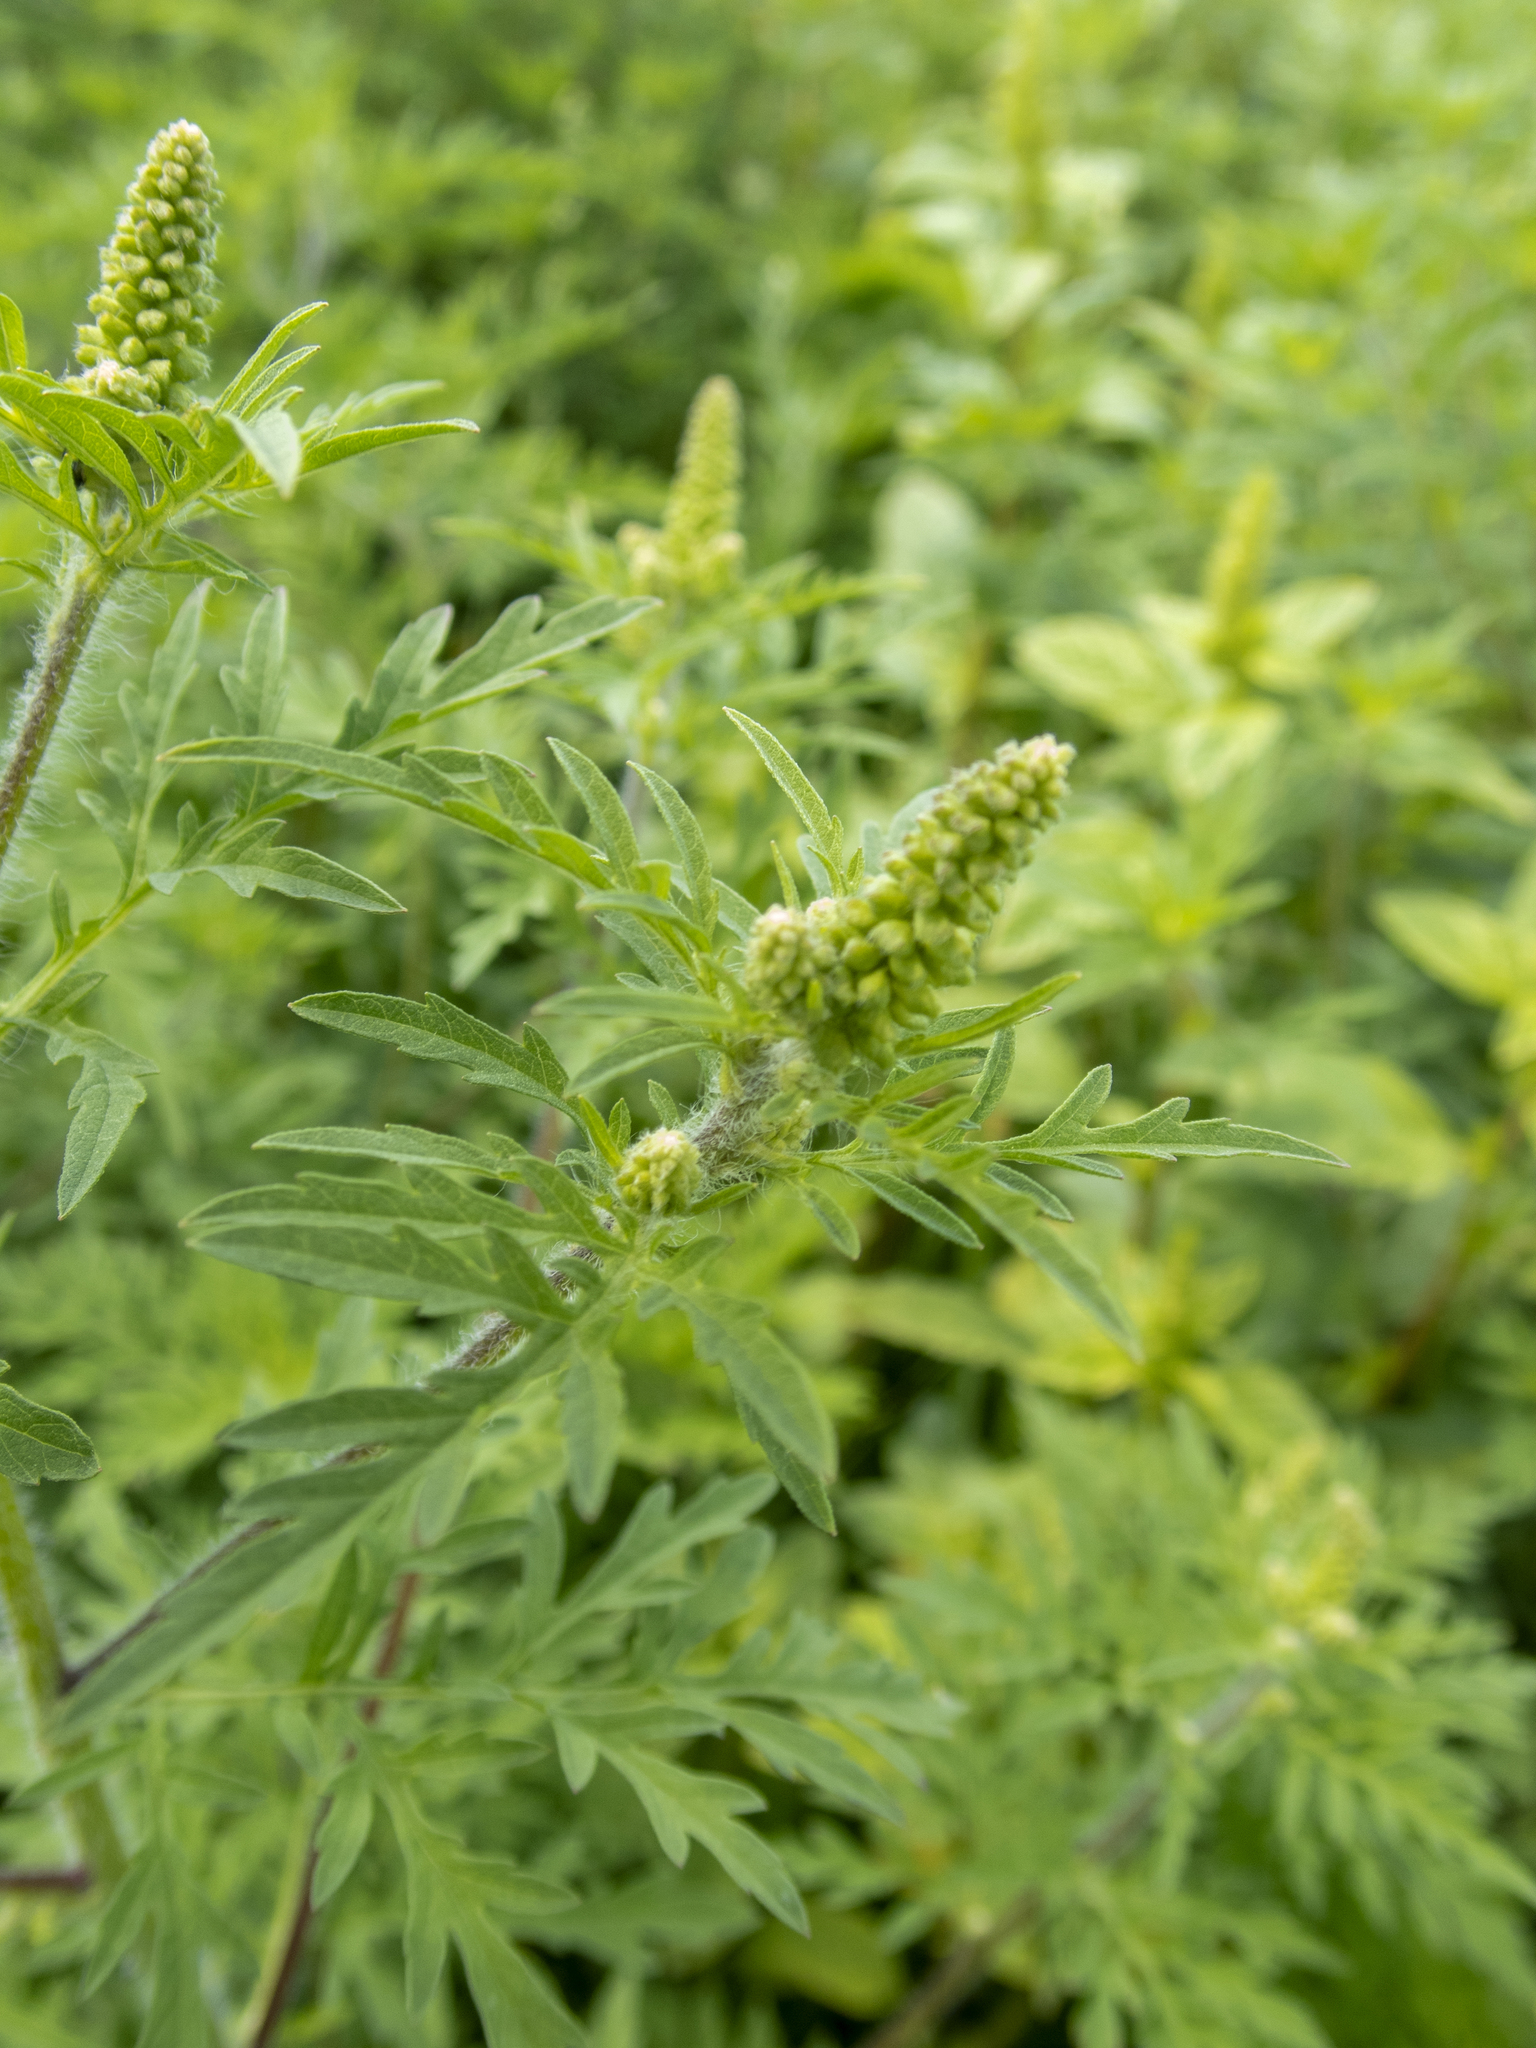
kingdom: Plantae
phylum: Tracheophyta
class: Magnoliopsida
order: Asterales
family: Asteraceae
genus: Ambrosia
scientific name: Ambrosia artemisiifolia
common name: Annual ragweed
